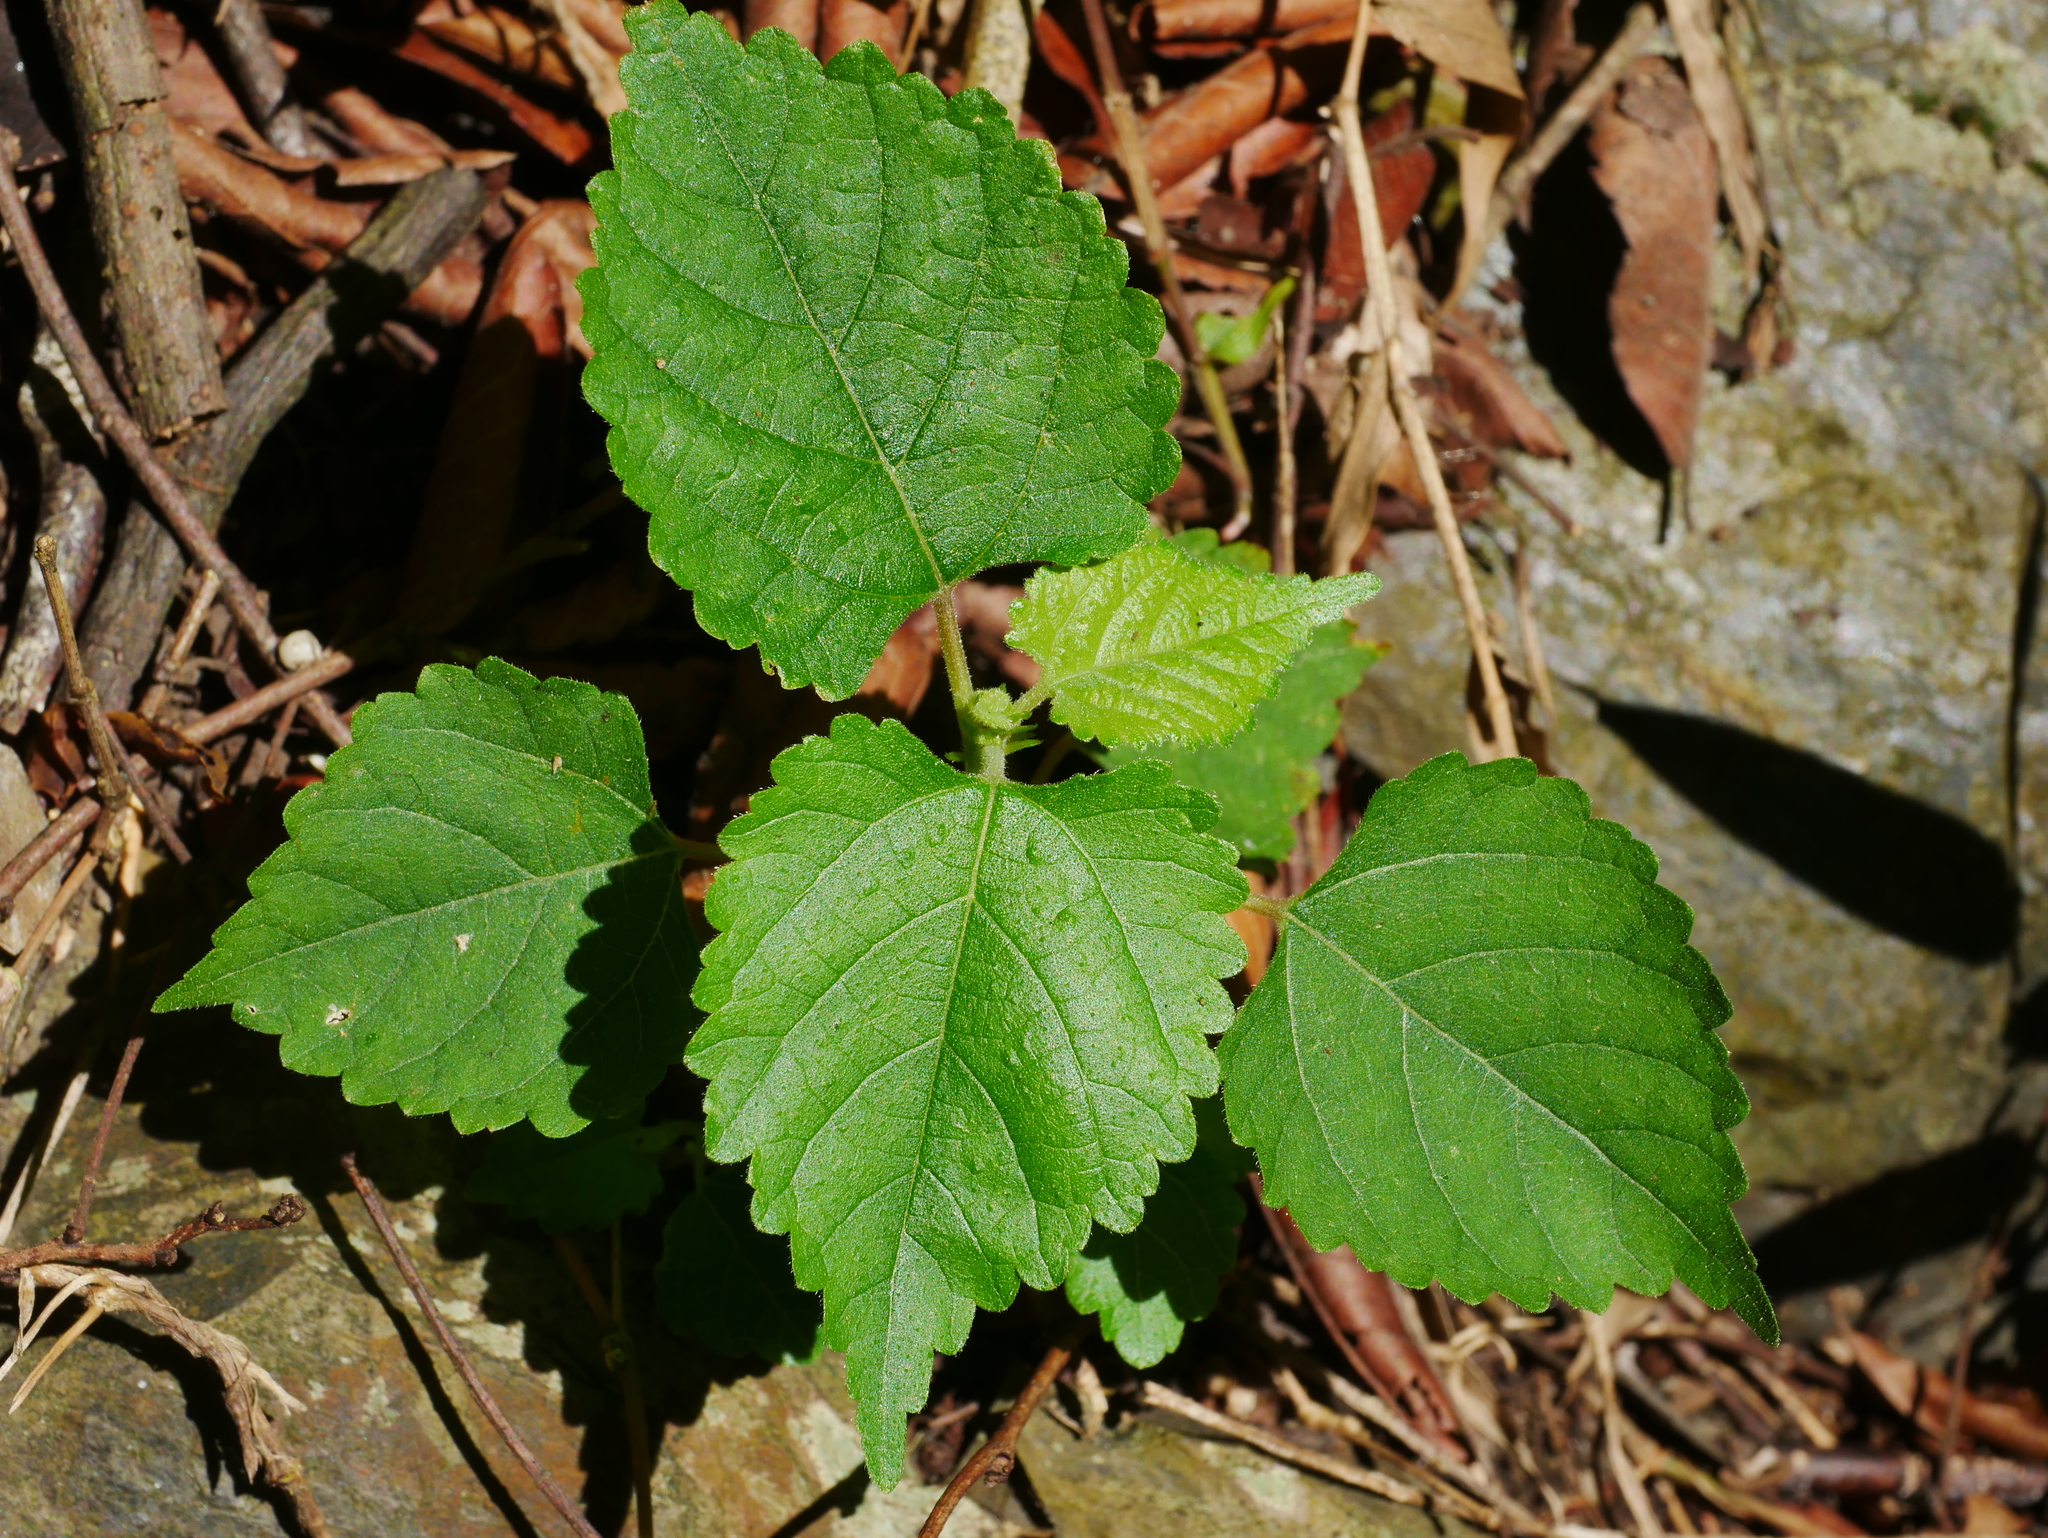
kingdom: Plantae
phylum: Tracheophyta
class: Magnoliopsida
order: Rosales
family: Moraceae
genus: Fatoua
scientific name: Fatoua villosa
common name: Hairy crabweed
